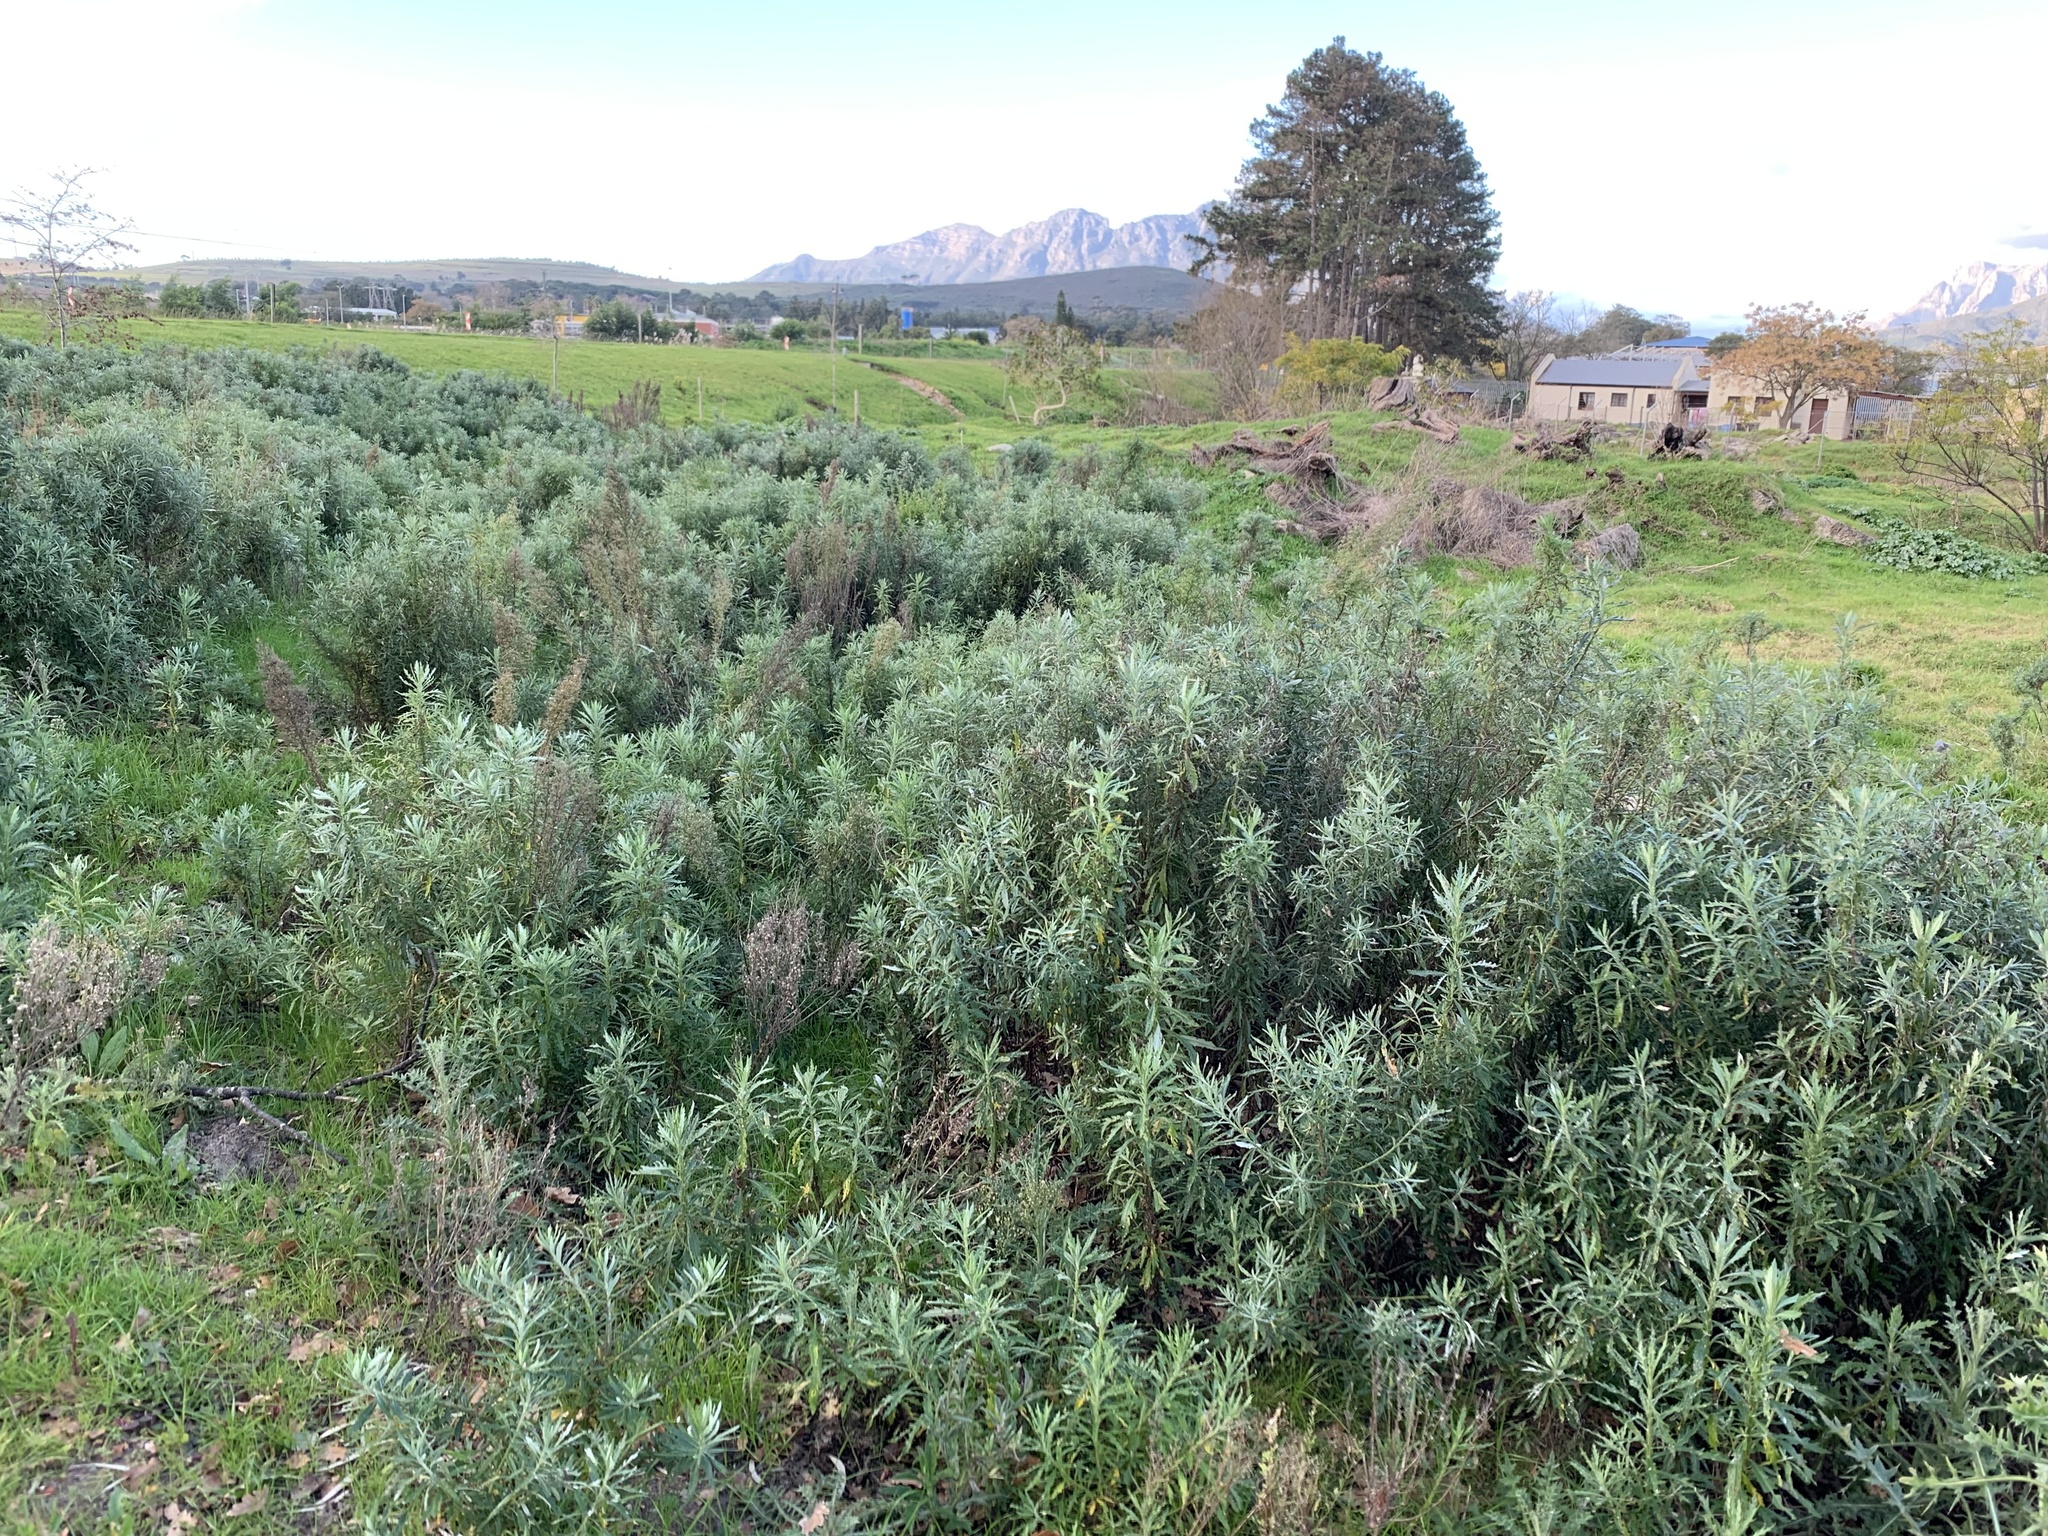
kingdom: Plantae
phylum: Tracheophyta
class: Magnoliopsida
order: Asterales
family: Asteraceae
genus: Senecio
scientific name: Senecio pterophorus
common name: Shoddy ragwort
